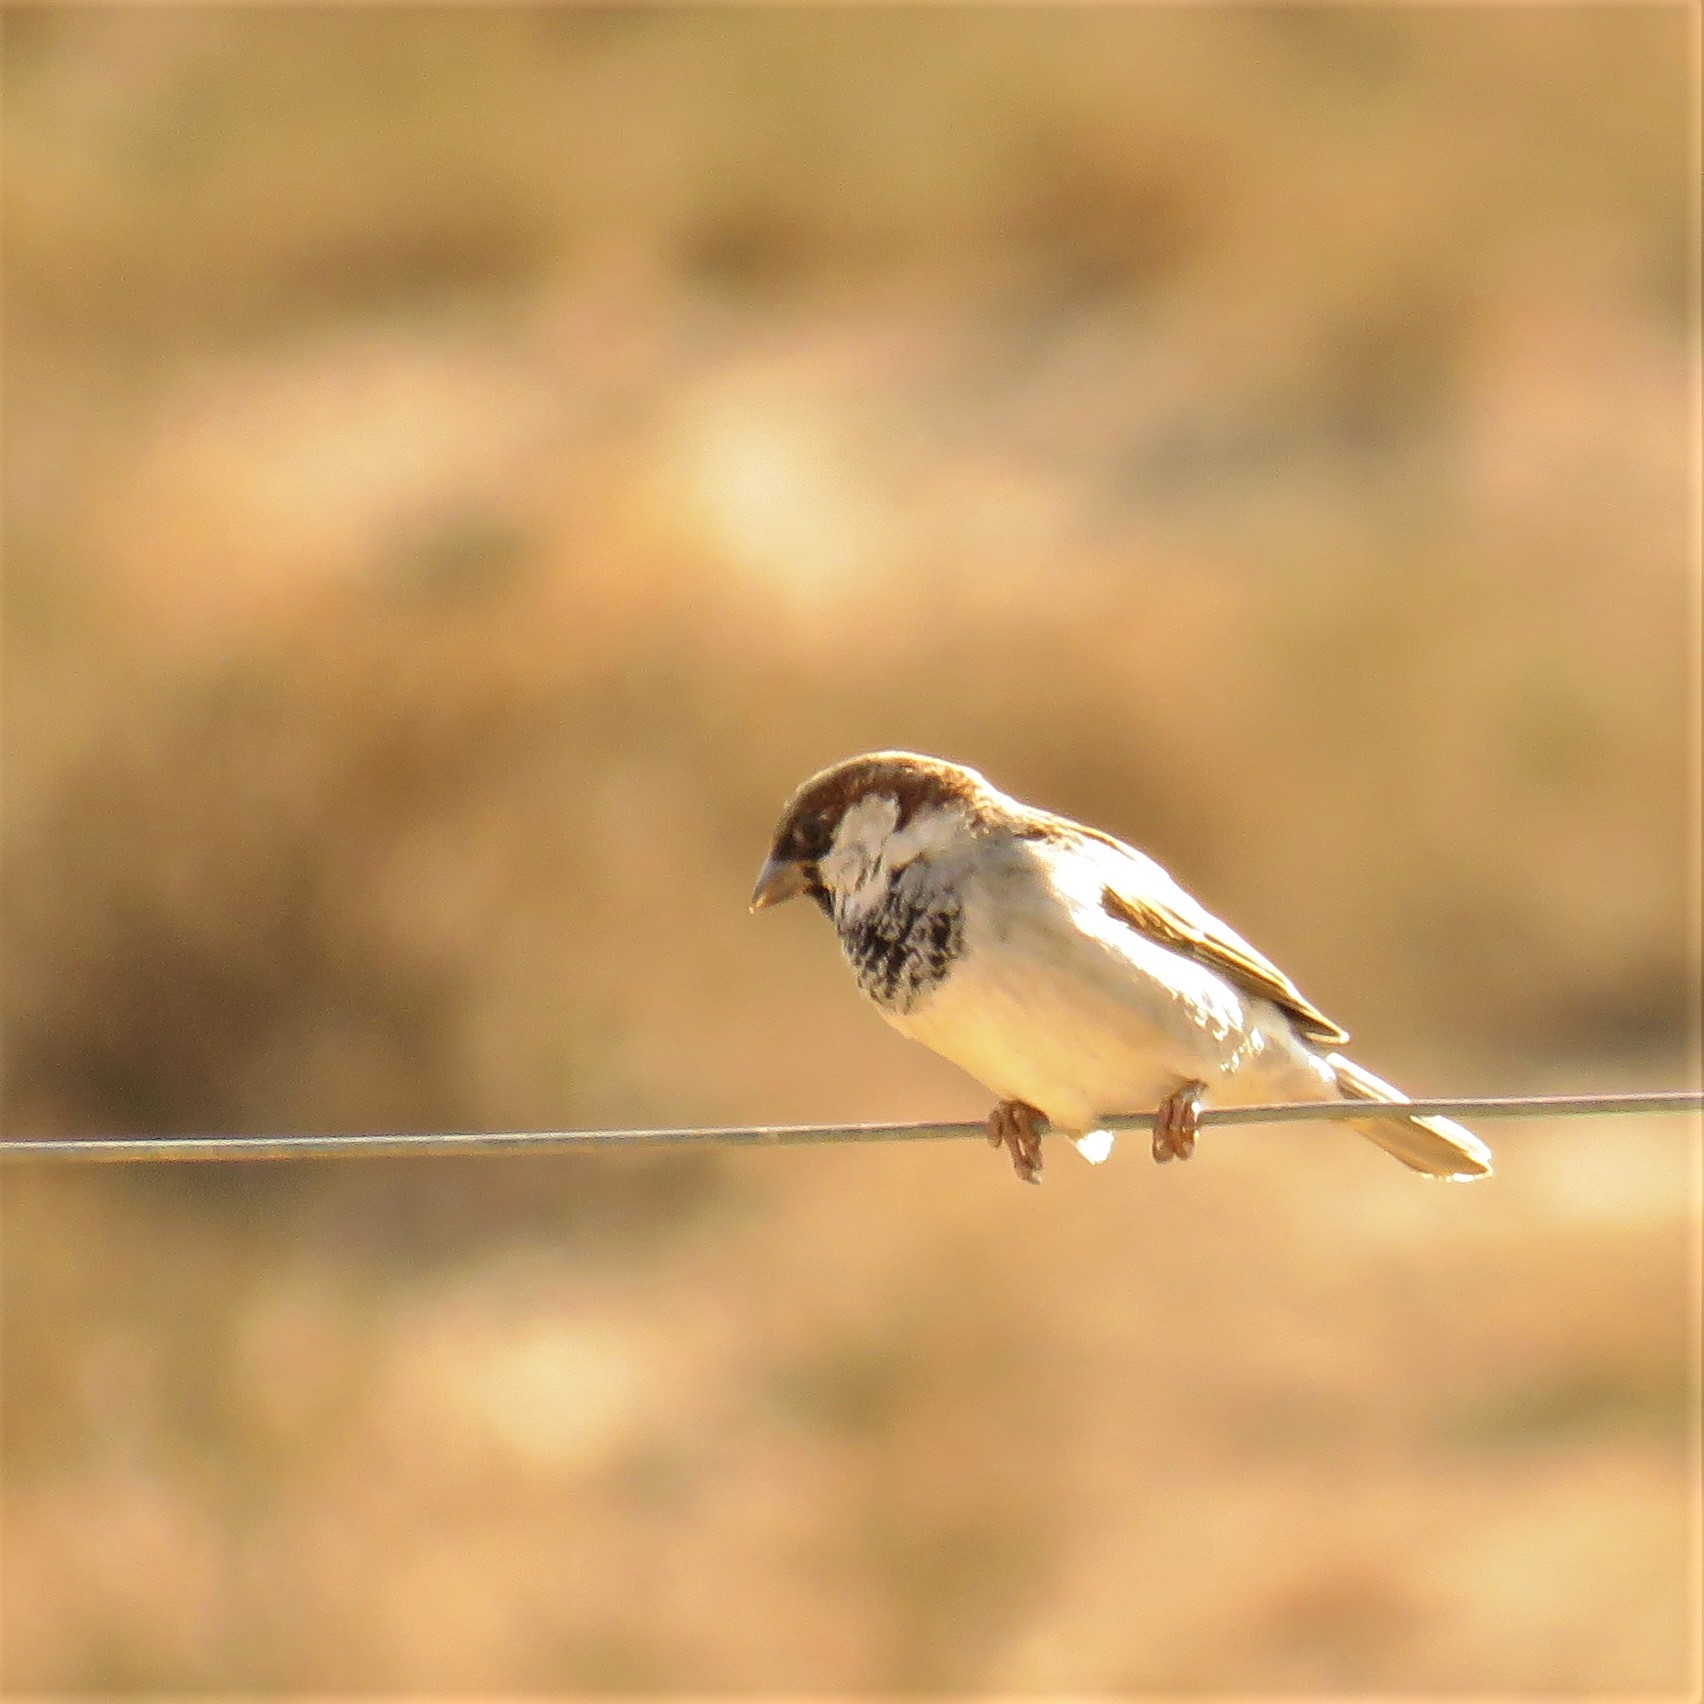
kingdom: Animalia
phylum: Chordata
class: Aves
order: Passeriformes
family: Passeridae
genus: Passer
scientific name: Passer domesticus
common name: House sparrow
